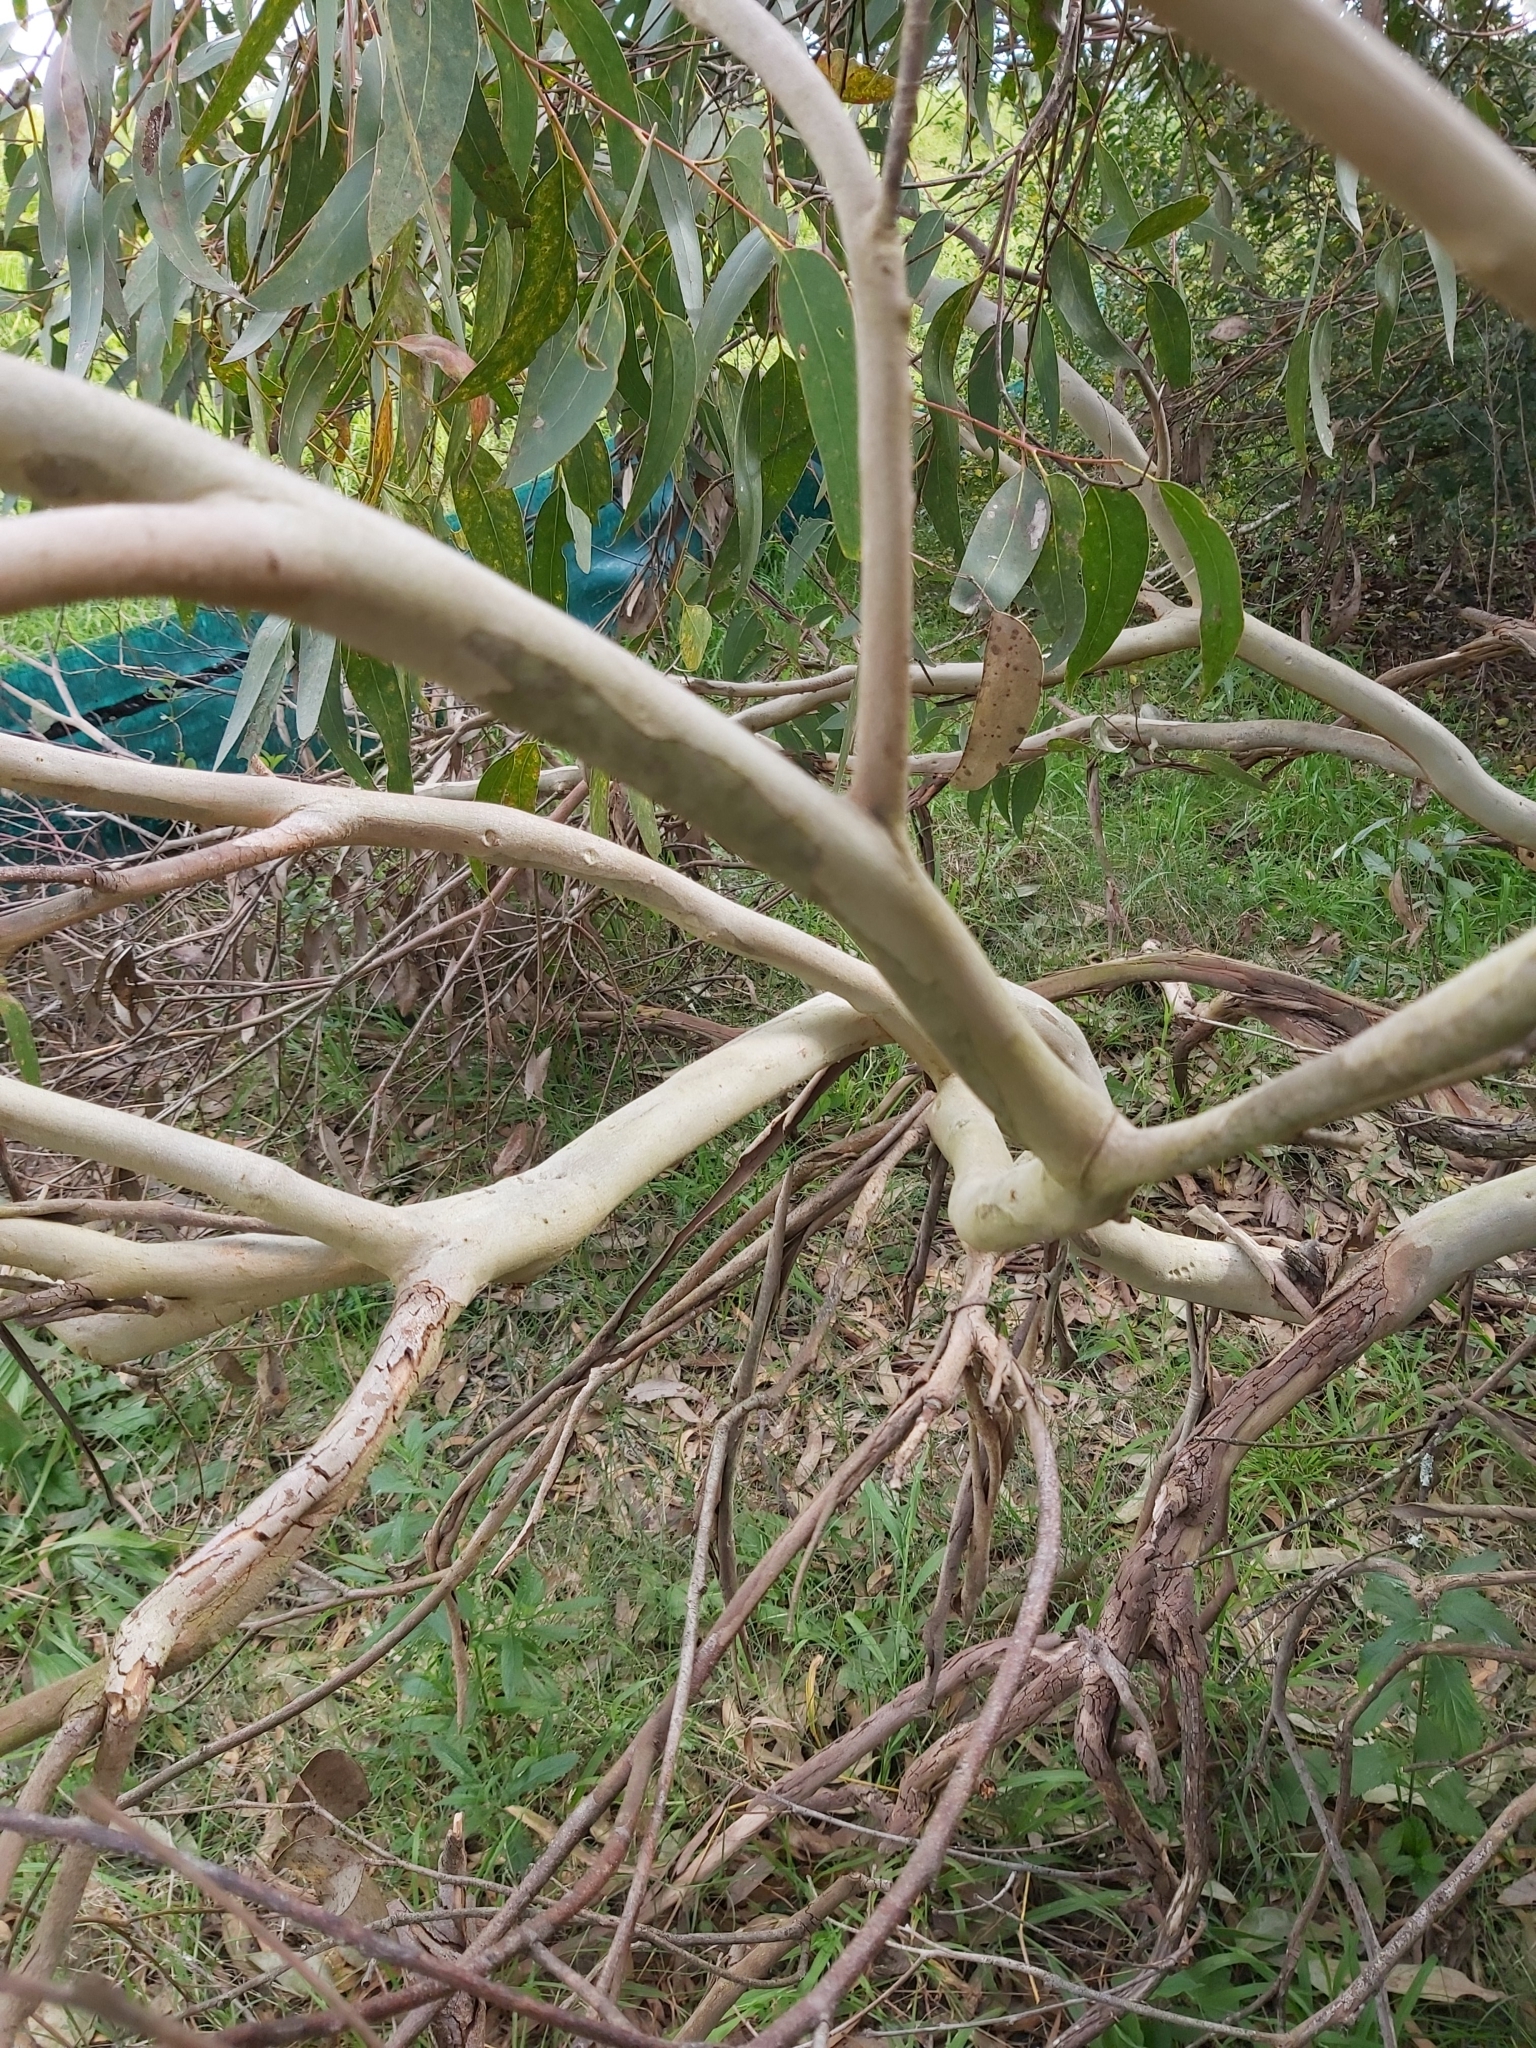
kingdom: Plantae
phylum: Tracheophyta
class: Magnoliopsida
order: Myrtales
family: Myrtaceae
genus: Eucalyptus
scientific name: Eucalyptus haemastoma
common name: Scribbly-gum
